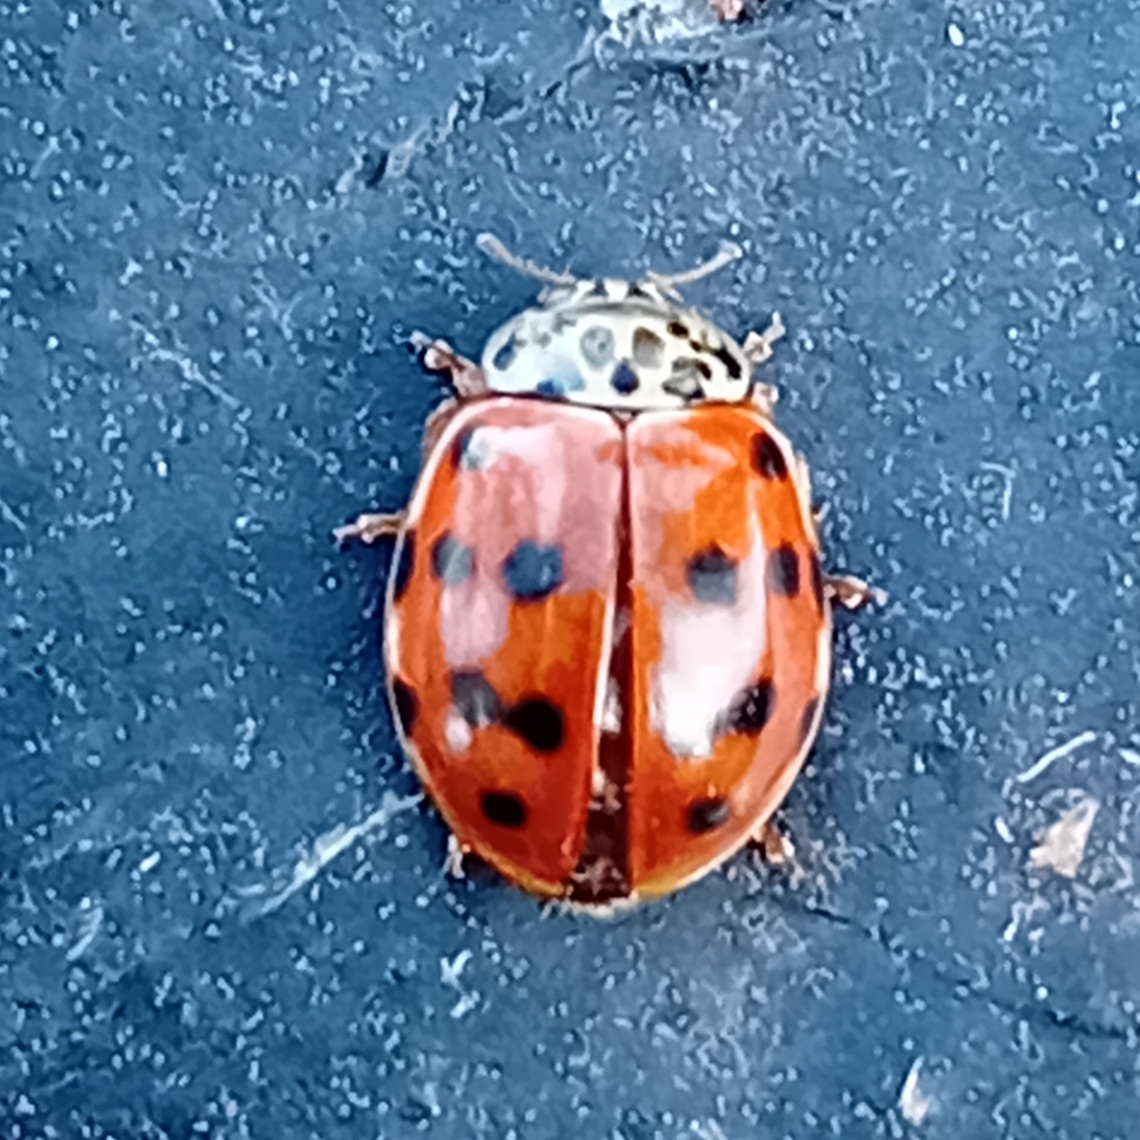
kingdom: Animalia
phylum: Arthropoda
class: Insecta
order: Coleoptera
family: Coccinellidae
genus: Harmonia
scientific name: Harmonia quadripunctata
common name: Cream-streaked ladybird
